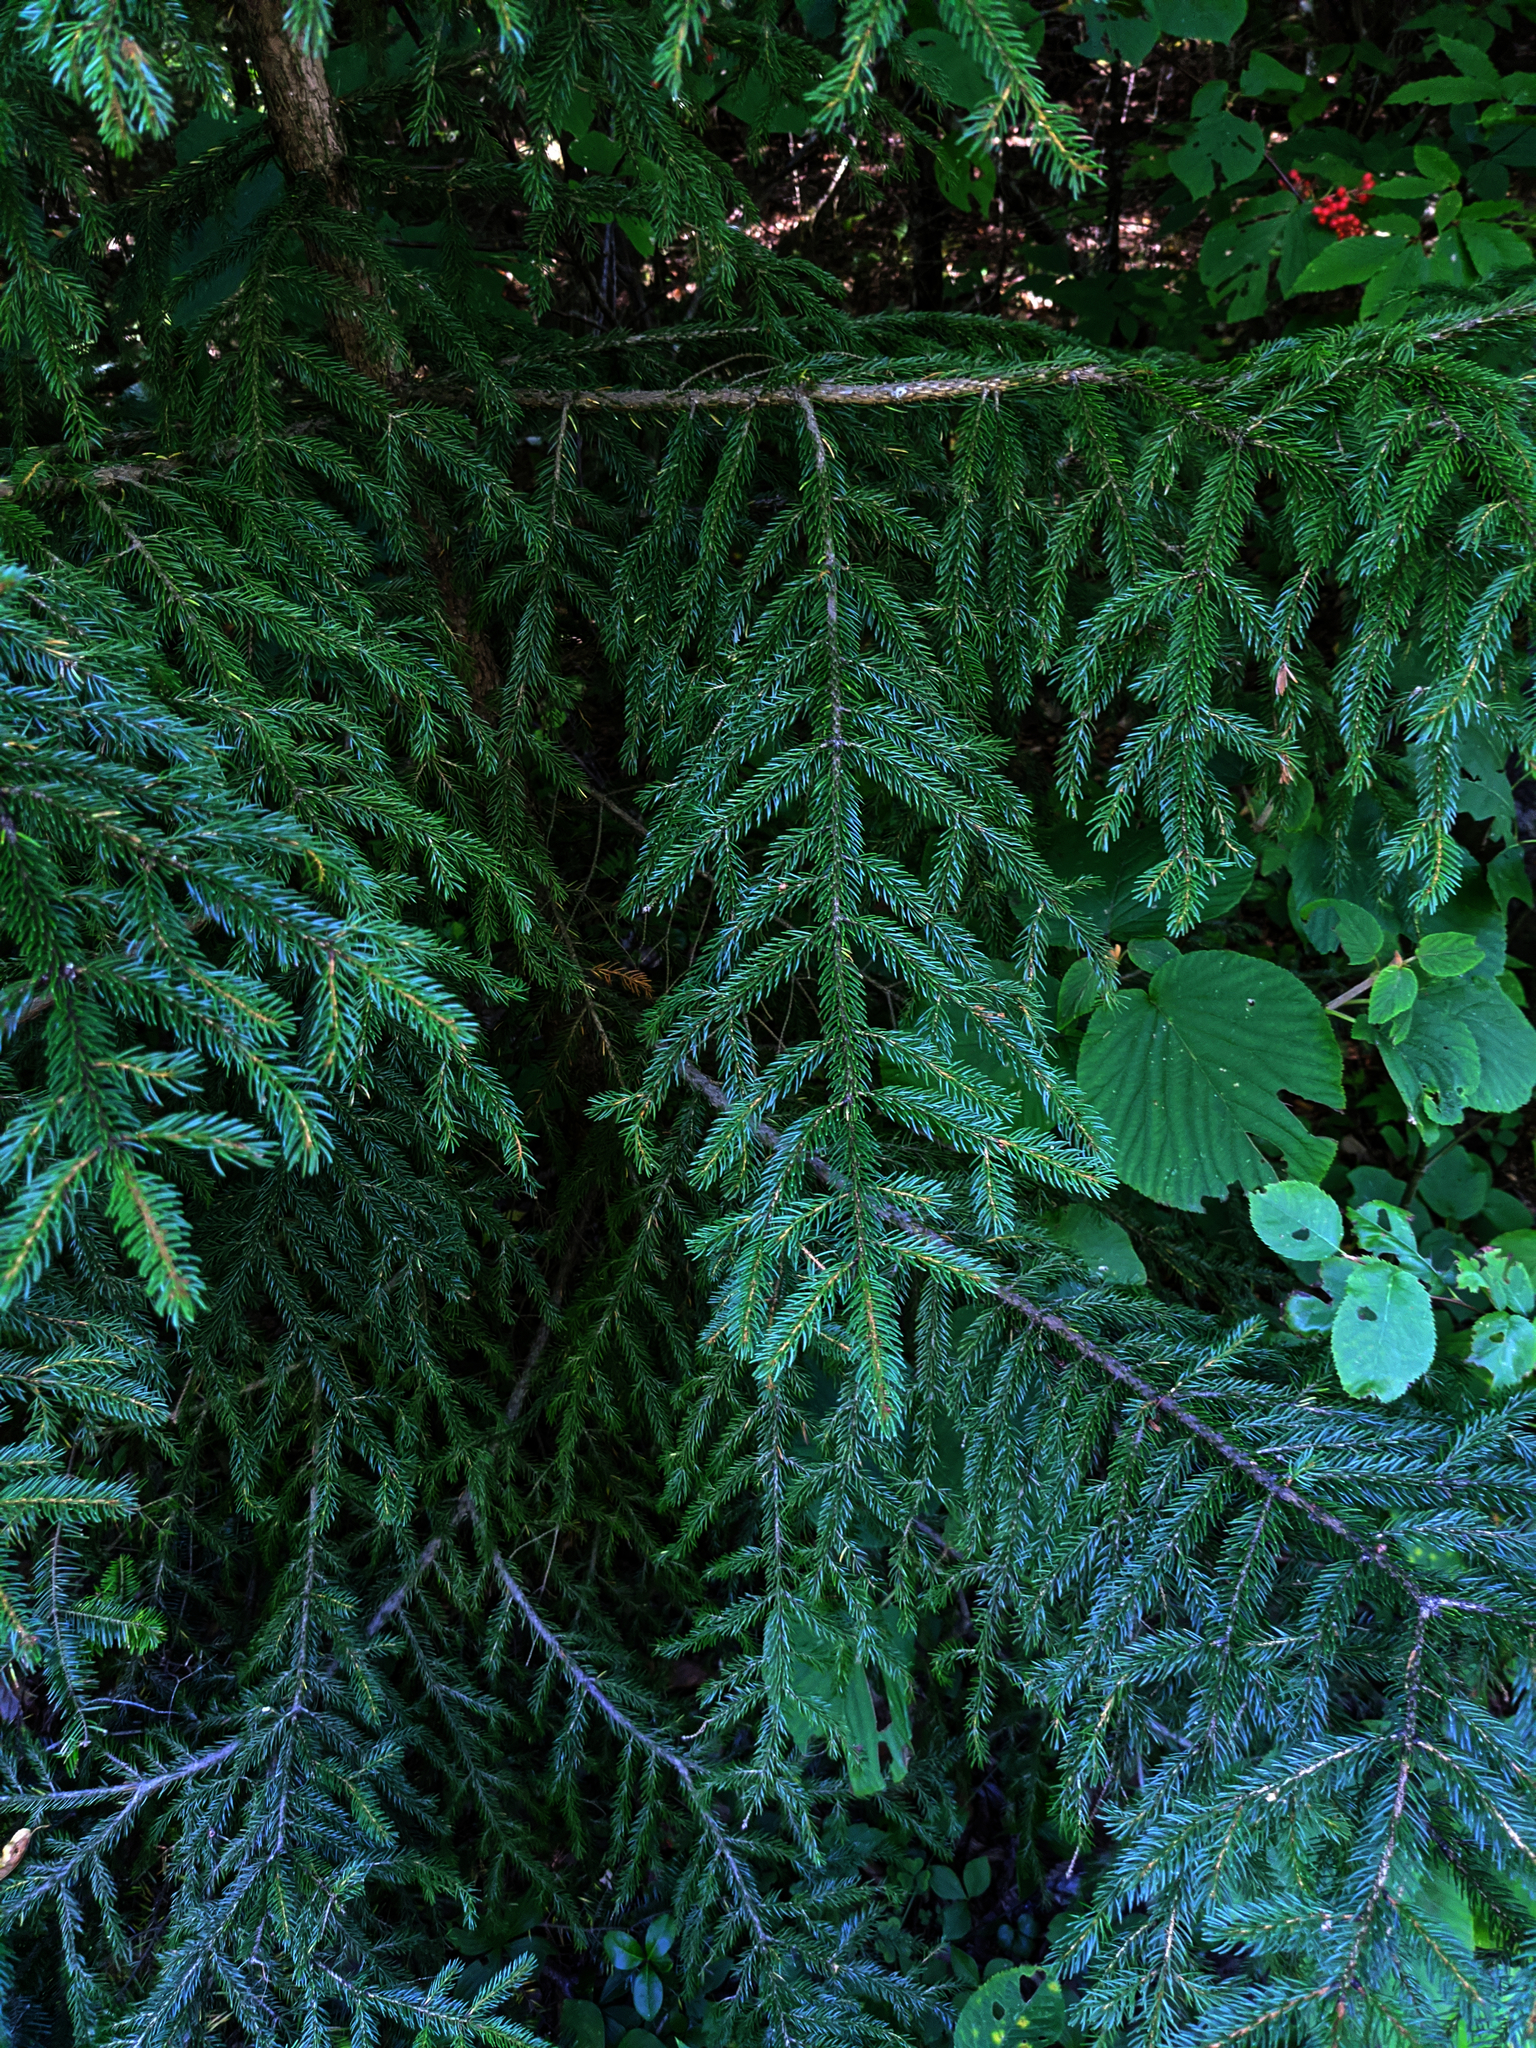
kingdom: Plantae
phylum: Tracheophyta
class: Pinopsida
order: Pinales
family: Pinaceae
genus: Picea
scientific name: Picea rubens
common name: Red spruce
